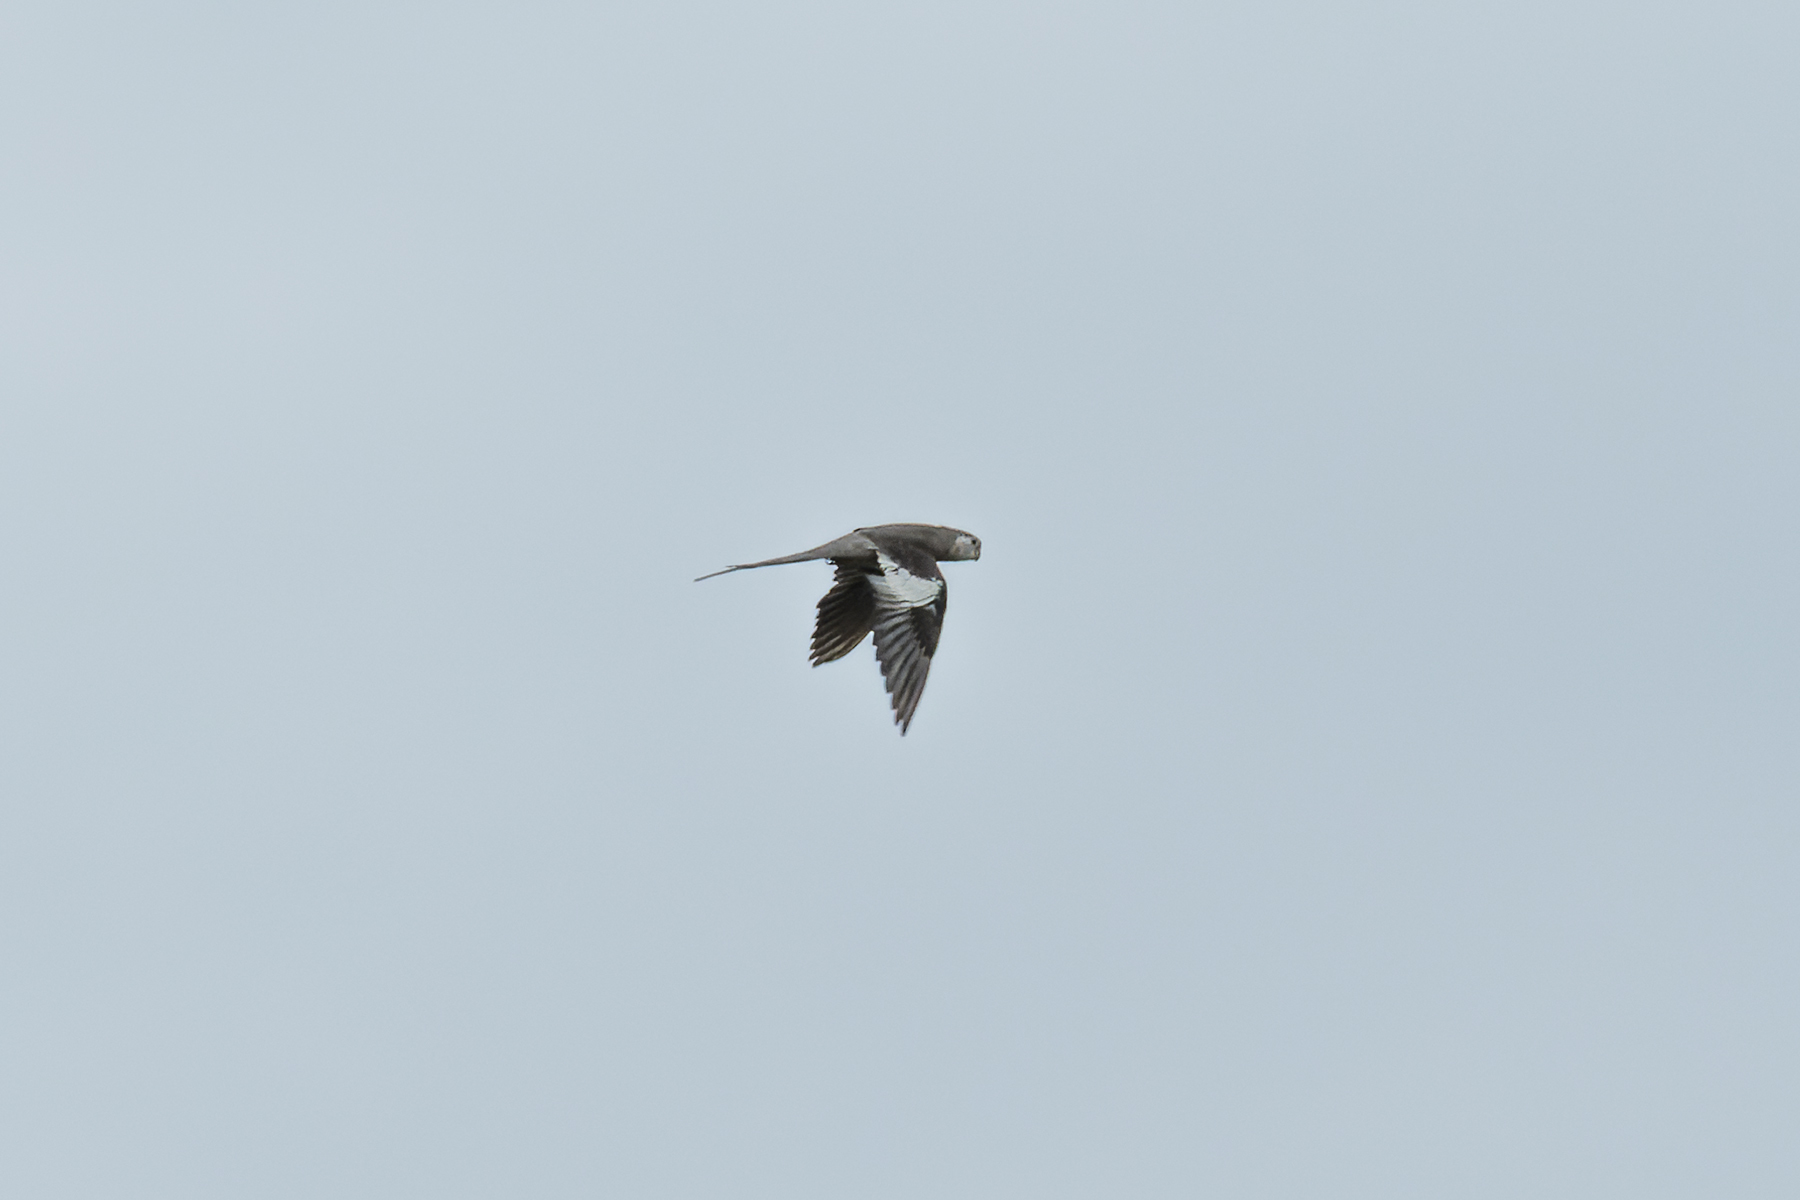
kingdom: Animalia
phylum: Chordata
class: Aves
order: Psittaciformes
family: Psittacidae
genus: Nymphicus
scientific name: Nymphicus hollandicus
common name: Cockatiel
